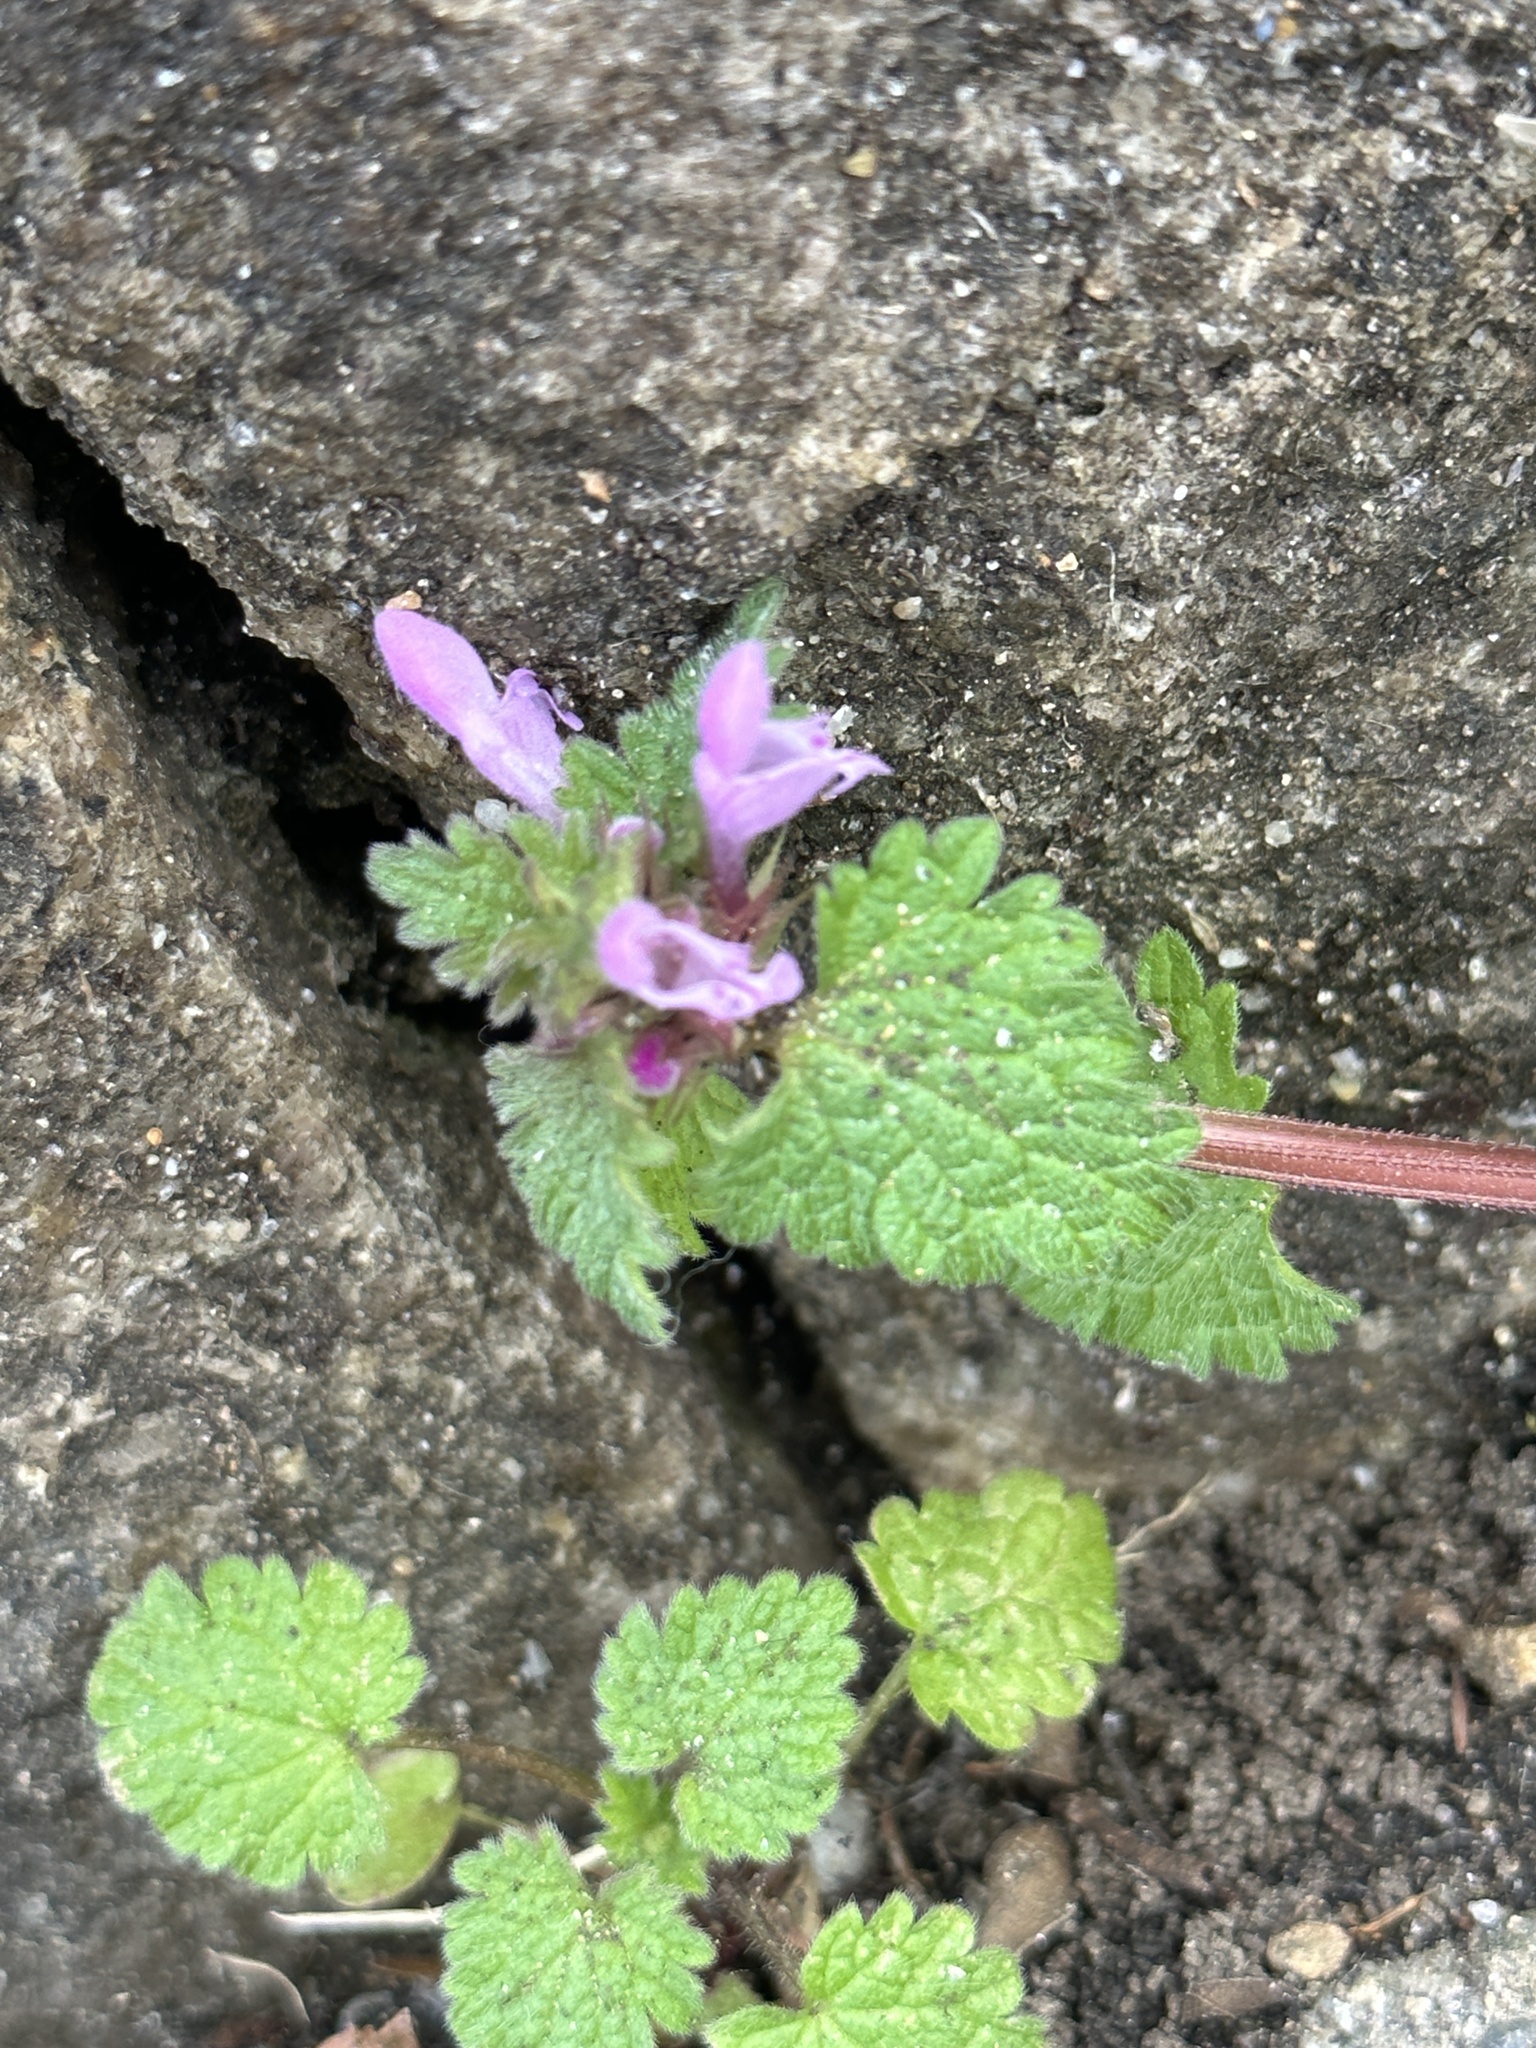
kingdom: Plantae
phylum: Tracheophyta
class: Magnoliopsida
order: Lamiales
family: Lamiaceae
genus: Lamium
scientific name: Lamium purpureum
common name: Red dead-nettle
